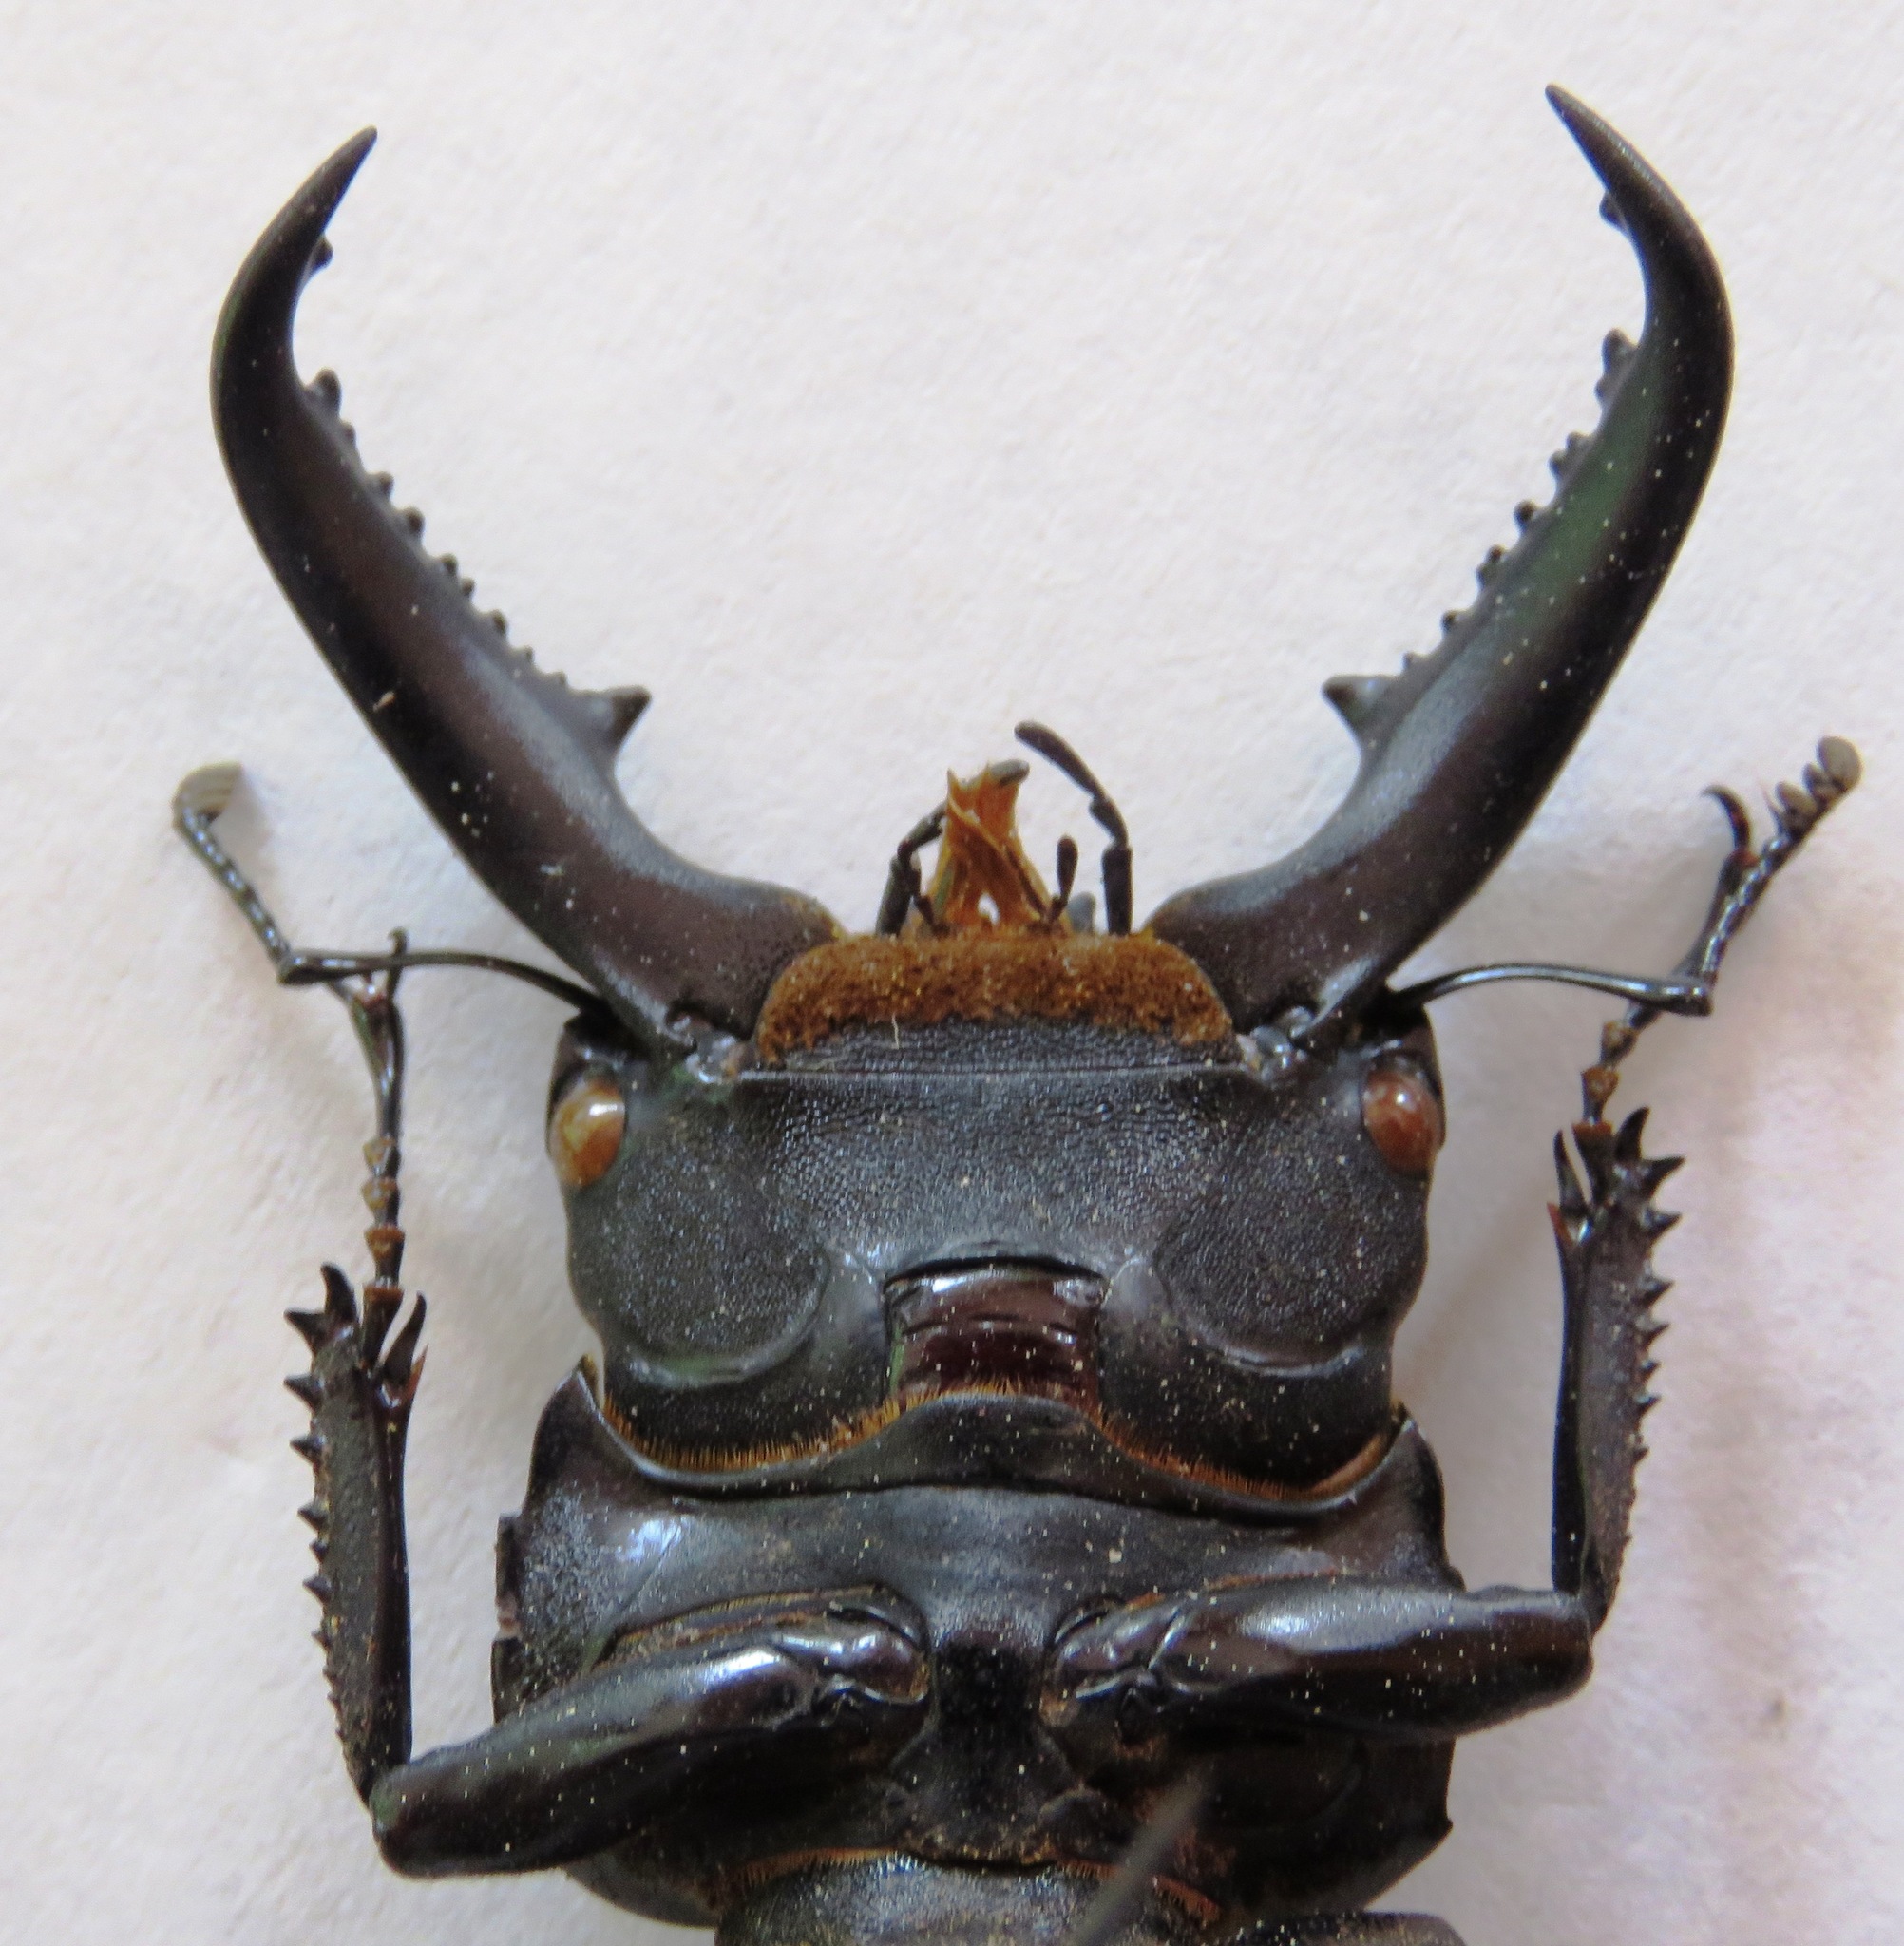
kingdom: Animalia
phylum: Arthropoda
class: Insecta
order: Coleoptera
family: Lucanidae
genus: Serrognathus
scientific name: Serrognathus titanus
